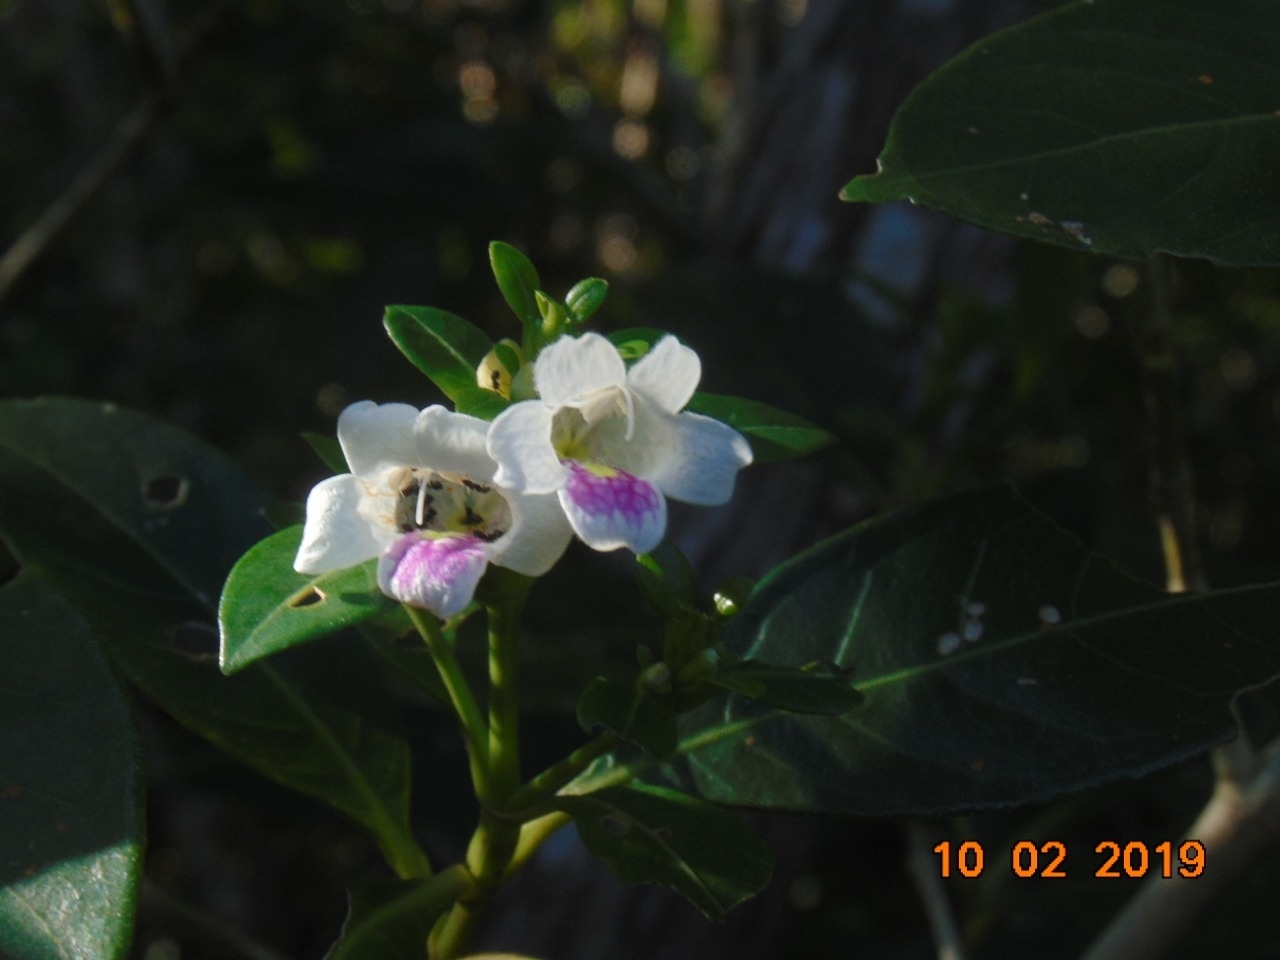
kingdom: Plantae
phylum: Tracheophyta
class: Magnoliopsida
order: Lamiales
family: Acanthaceae
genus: Bravaisia
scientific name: Bravaisia berlandieriana
